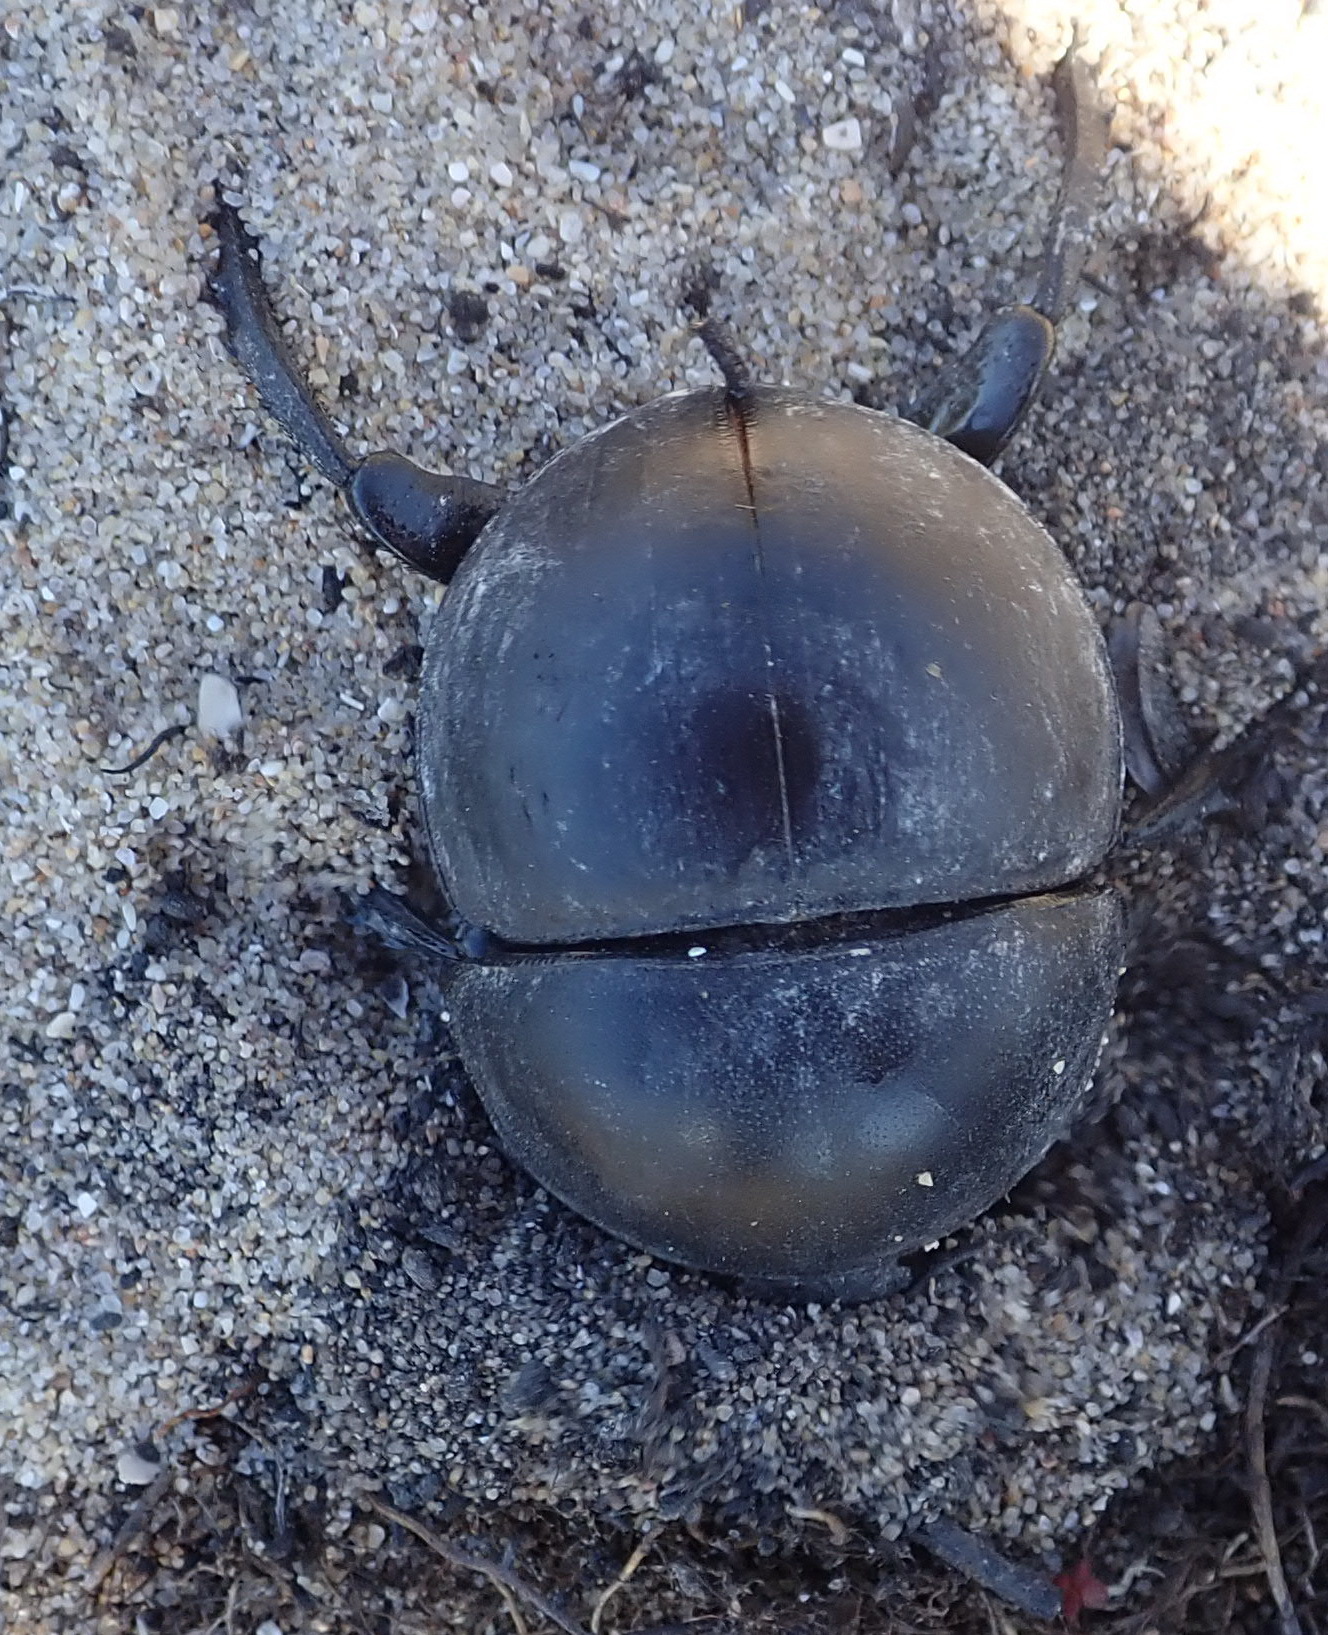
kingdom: Animalia
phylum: Arthropoda
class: Insecta
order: Coleoptera
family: Scarabaeidae
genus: Circellium
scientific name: Circellium bacchus
